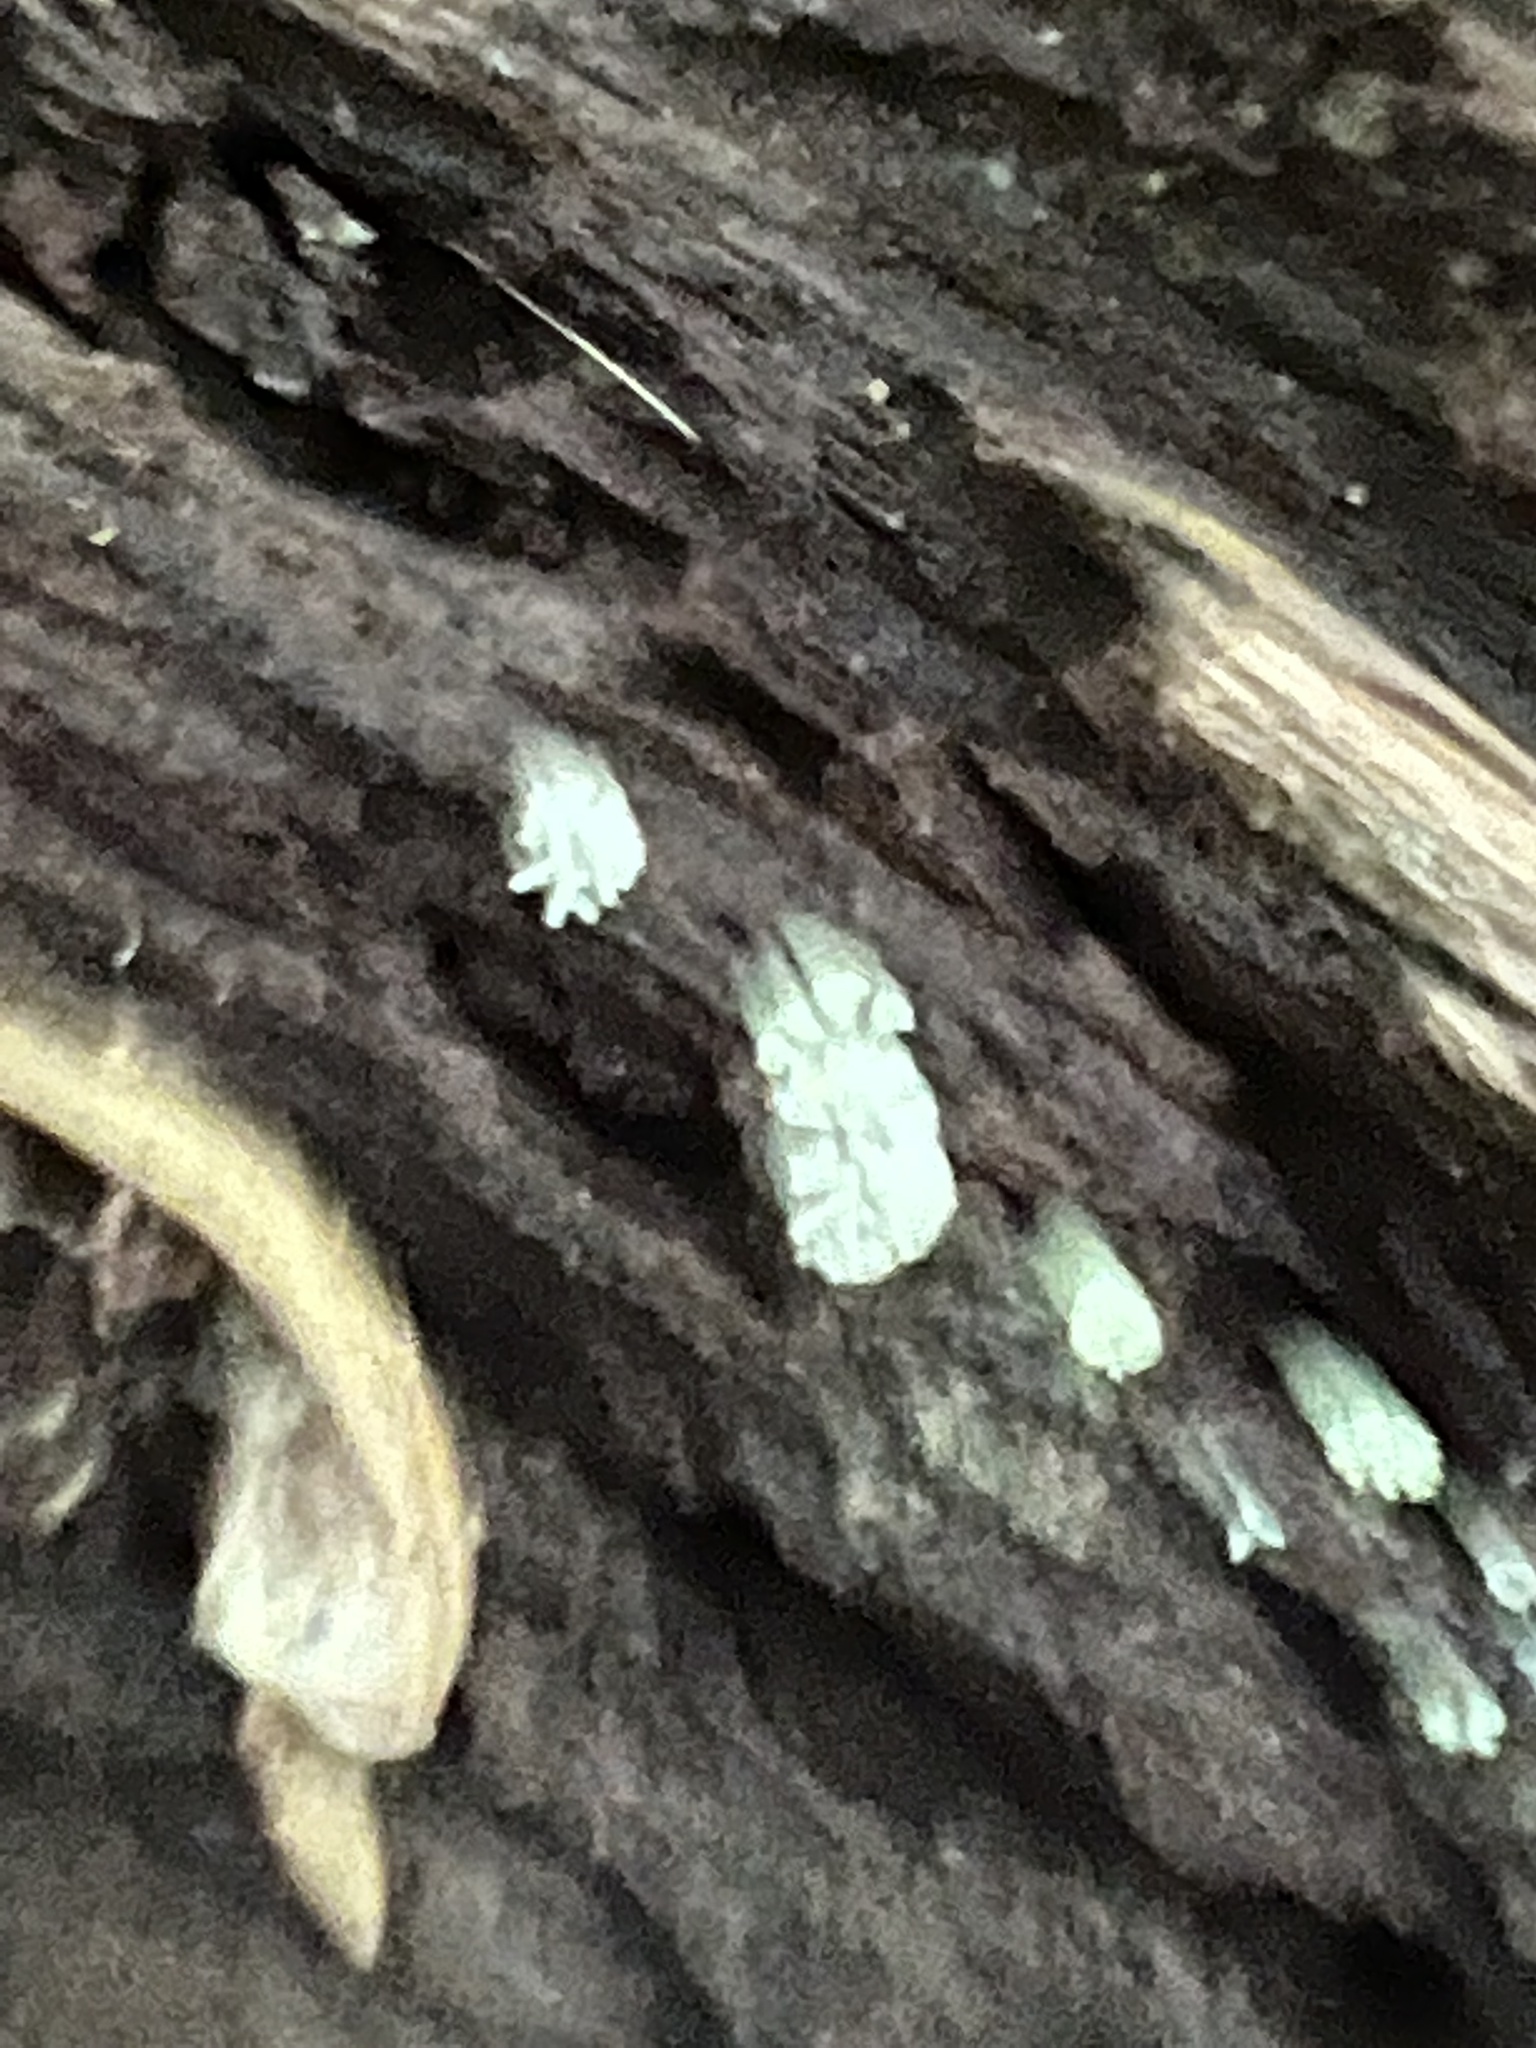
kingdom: Protozoa
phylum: Mycetozoa
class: Protosteliomycetes
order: Ceratiomyxales
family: Ceratiomyxaceae
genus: Ceratiomyxa
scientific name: Ceratiomyxa fruticulosa
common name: Honeycomb coral slime mold
